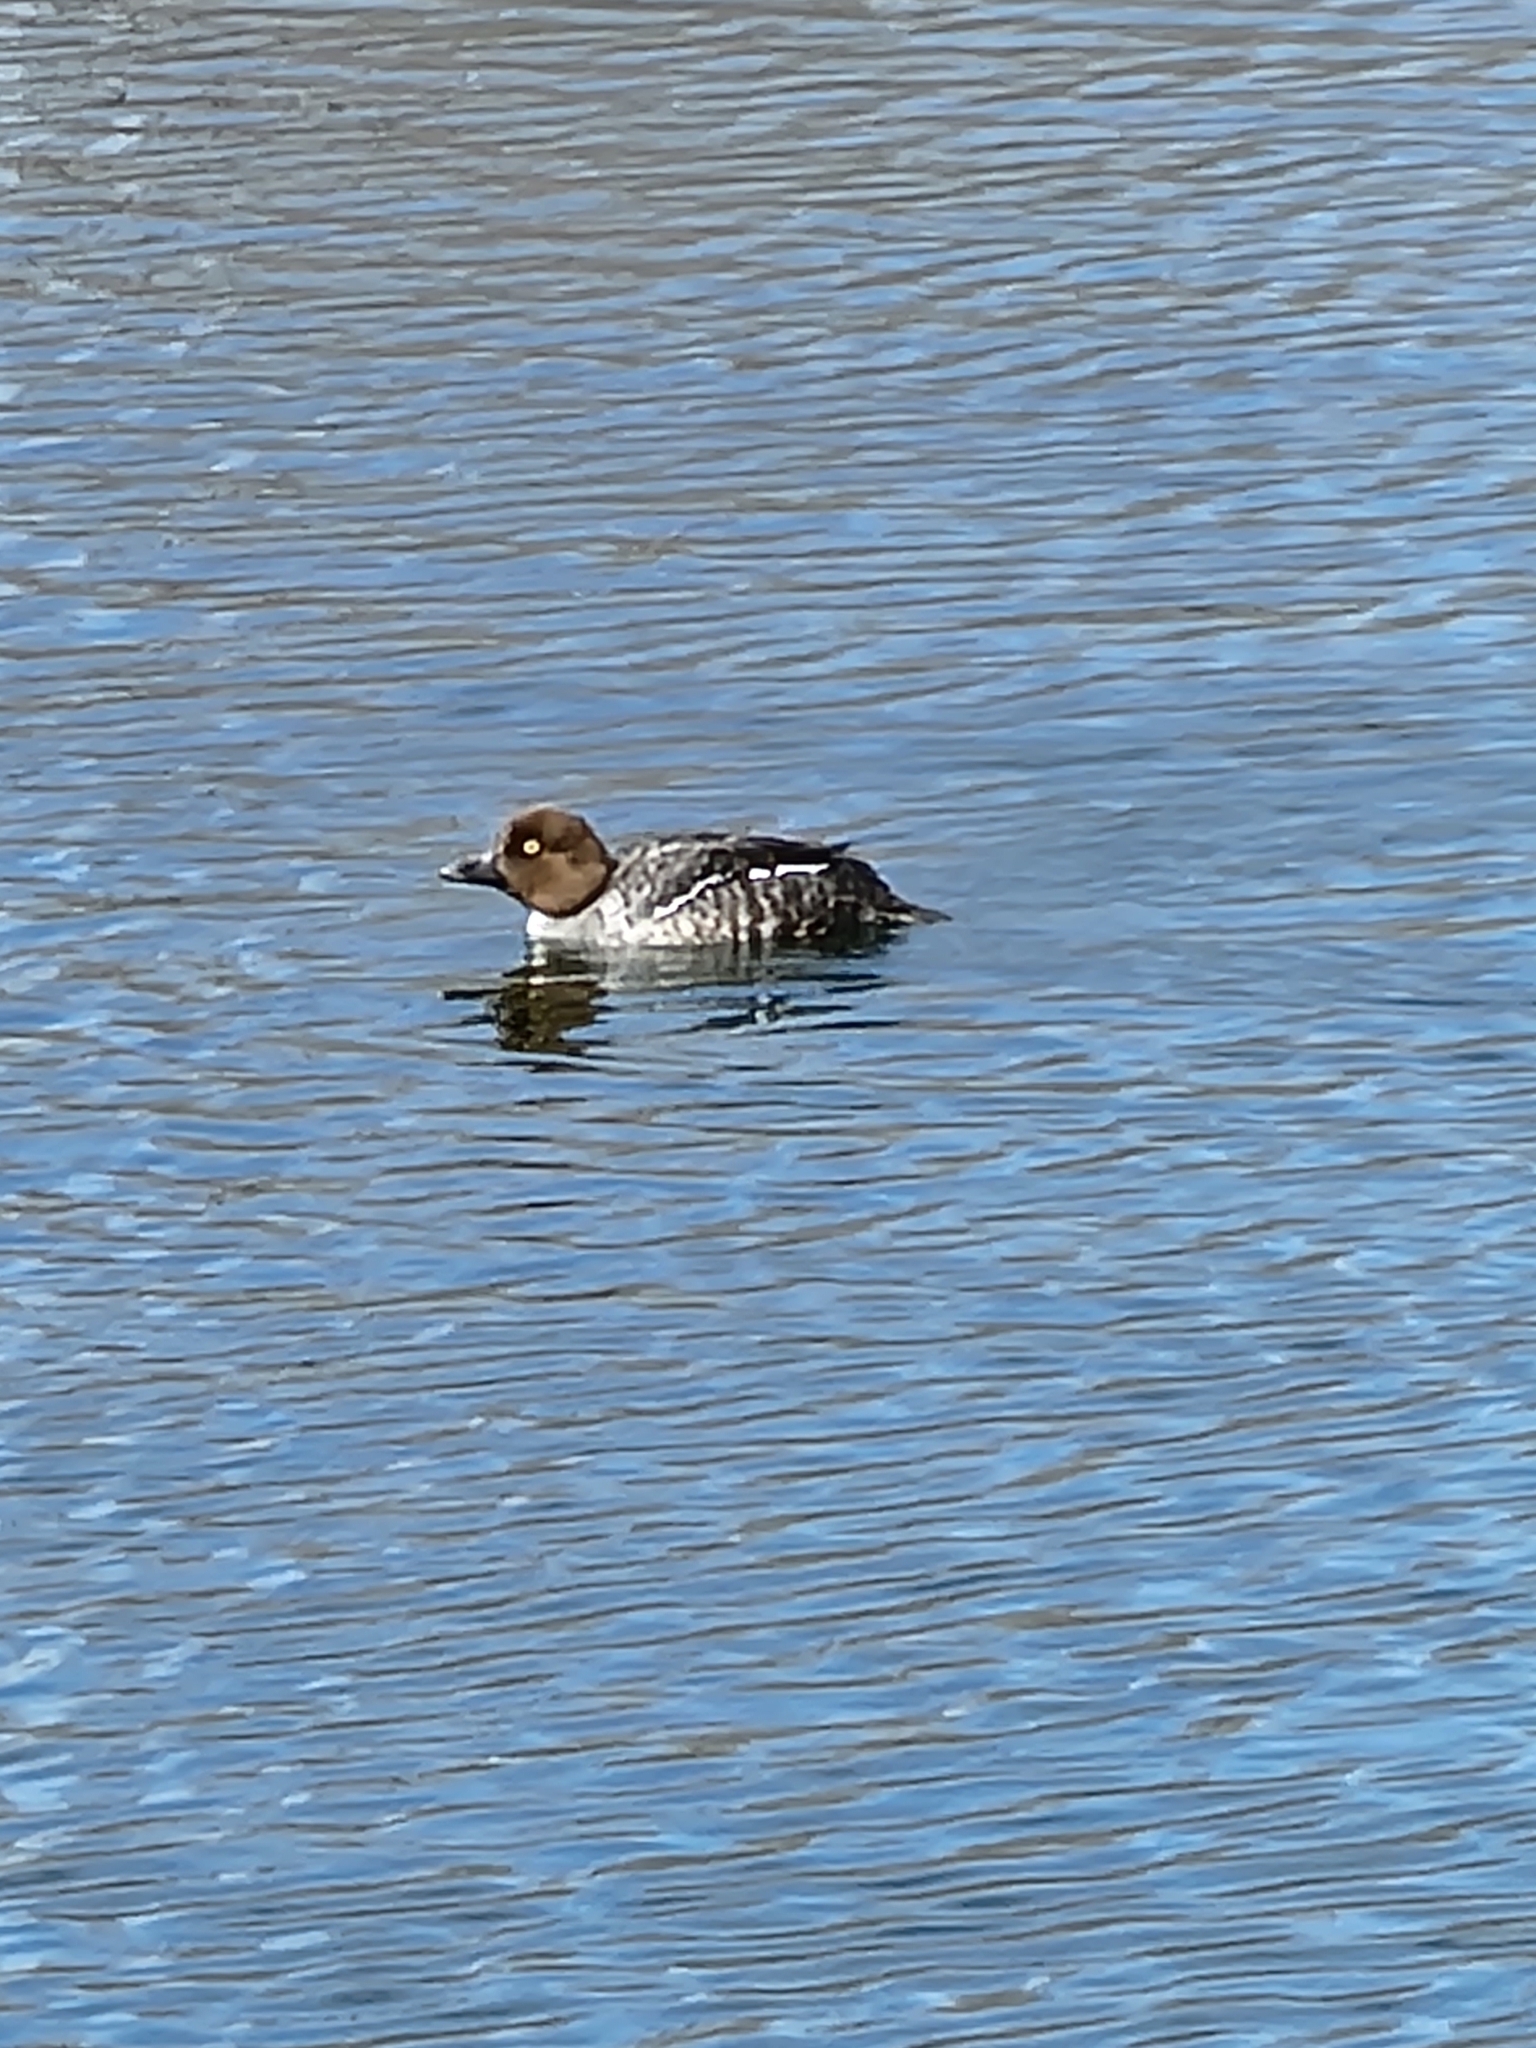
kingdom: Animalia
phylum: Chordata
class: Aves
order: Anseriformes
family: Anatidae
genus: Bucephala
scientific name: Bucephala clangula
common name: Common goldeneye
